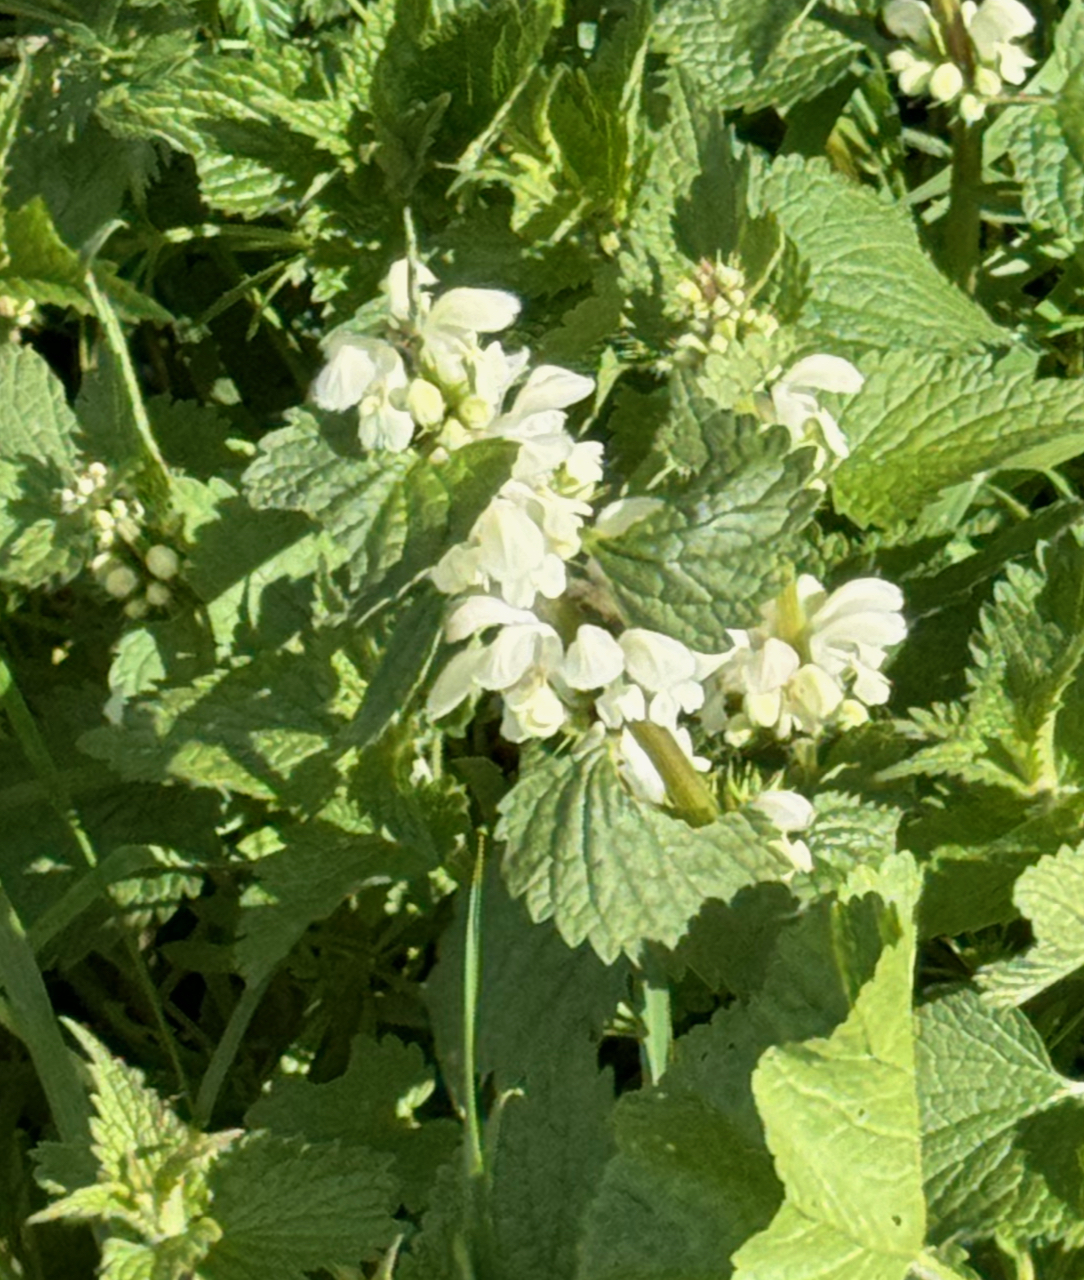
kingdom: Plantae
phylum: Tracheophyta
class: Magnoliopsida
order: Lamiales
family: Lamiaceae
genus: Lamium
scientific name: Lamium album
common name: White dead-nettle
